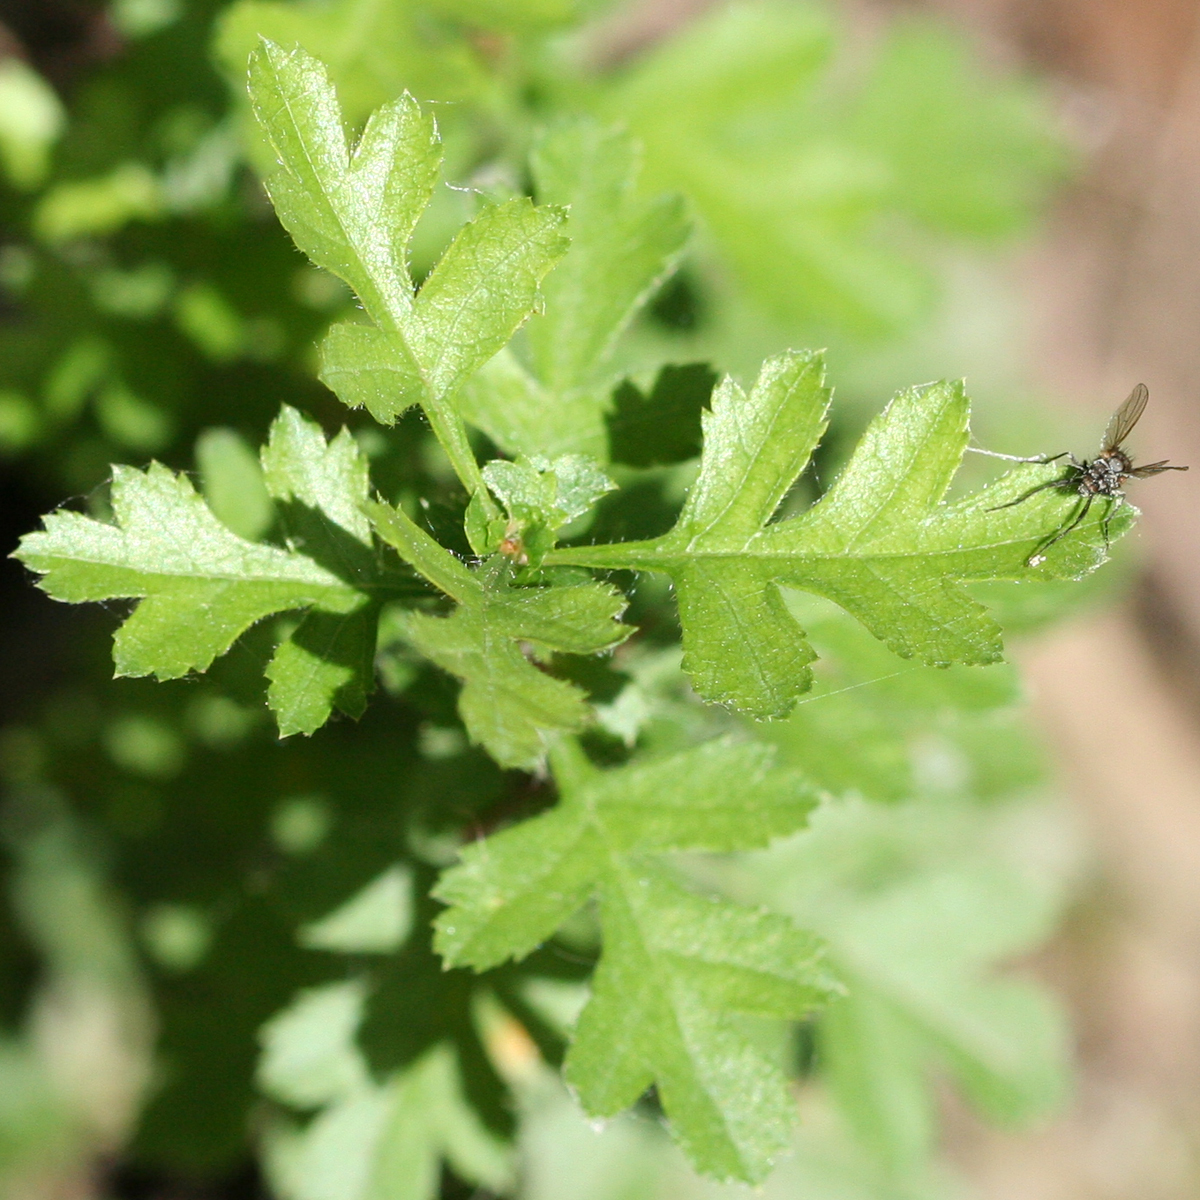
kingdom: Plantae
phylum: Tracheophyta
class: Magnoliopsida
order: Rosales
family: Rosaceae
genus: Crataegus
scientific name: Crataegus monogyna
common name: Hawthorn
